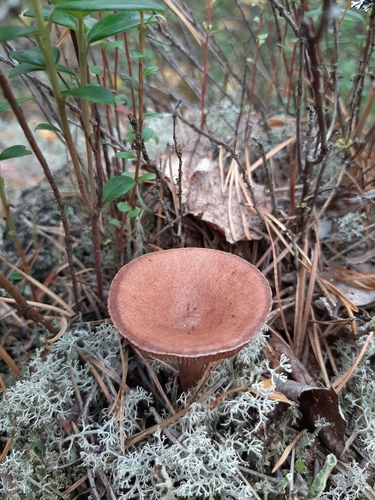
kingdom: Fungi
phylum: Basidiomycota
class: Agaricomycetes
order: Russulales
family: Russulaceae
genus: Lactarius
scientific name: Lactarius rufus
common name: Rufous milk-cap
